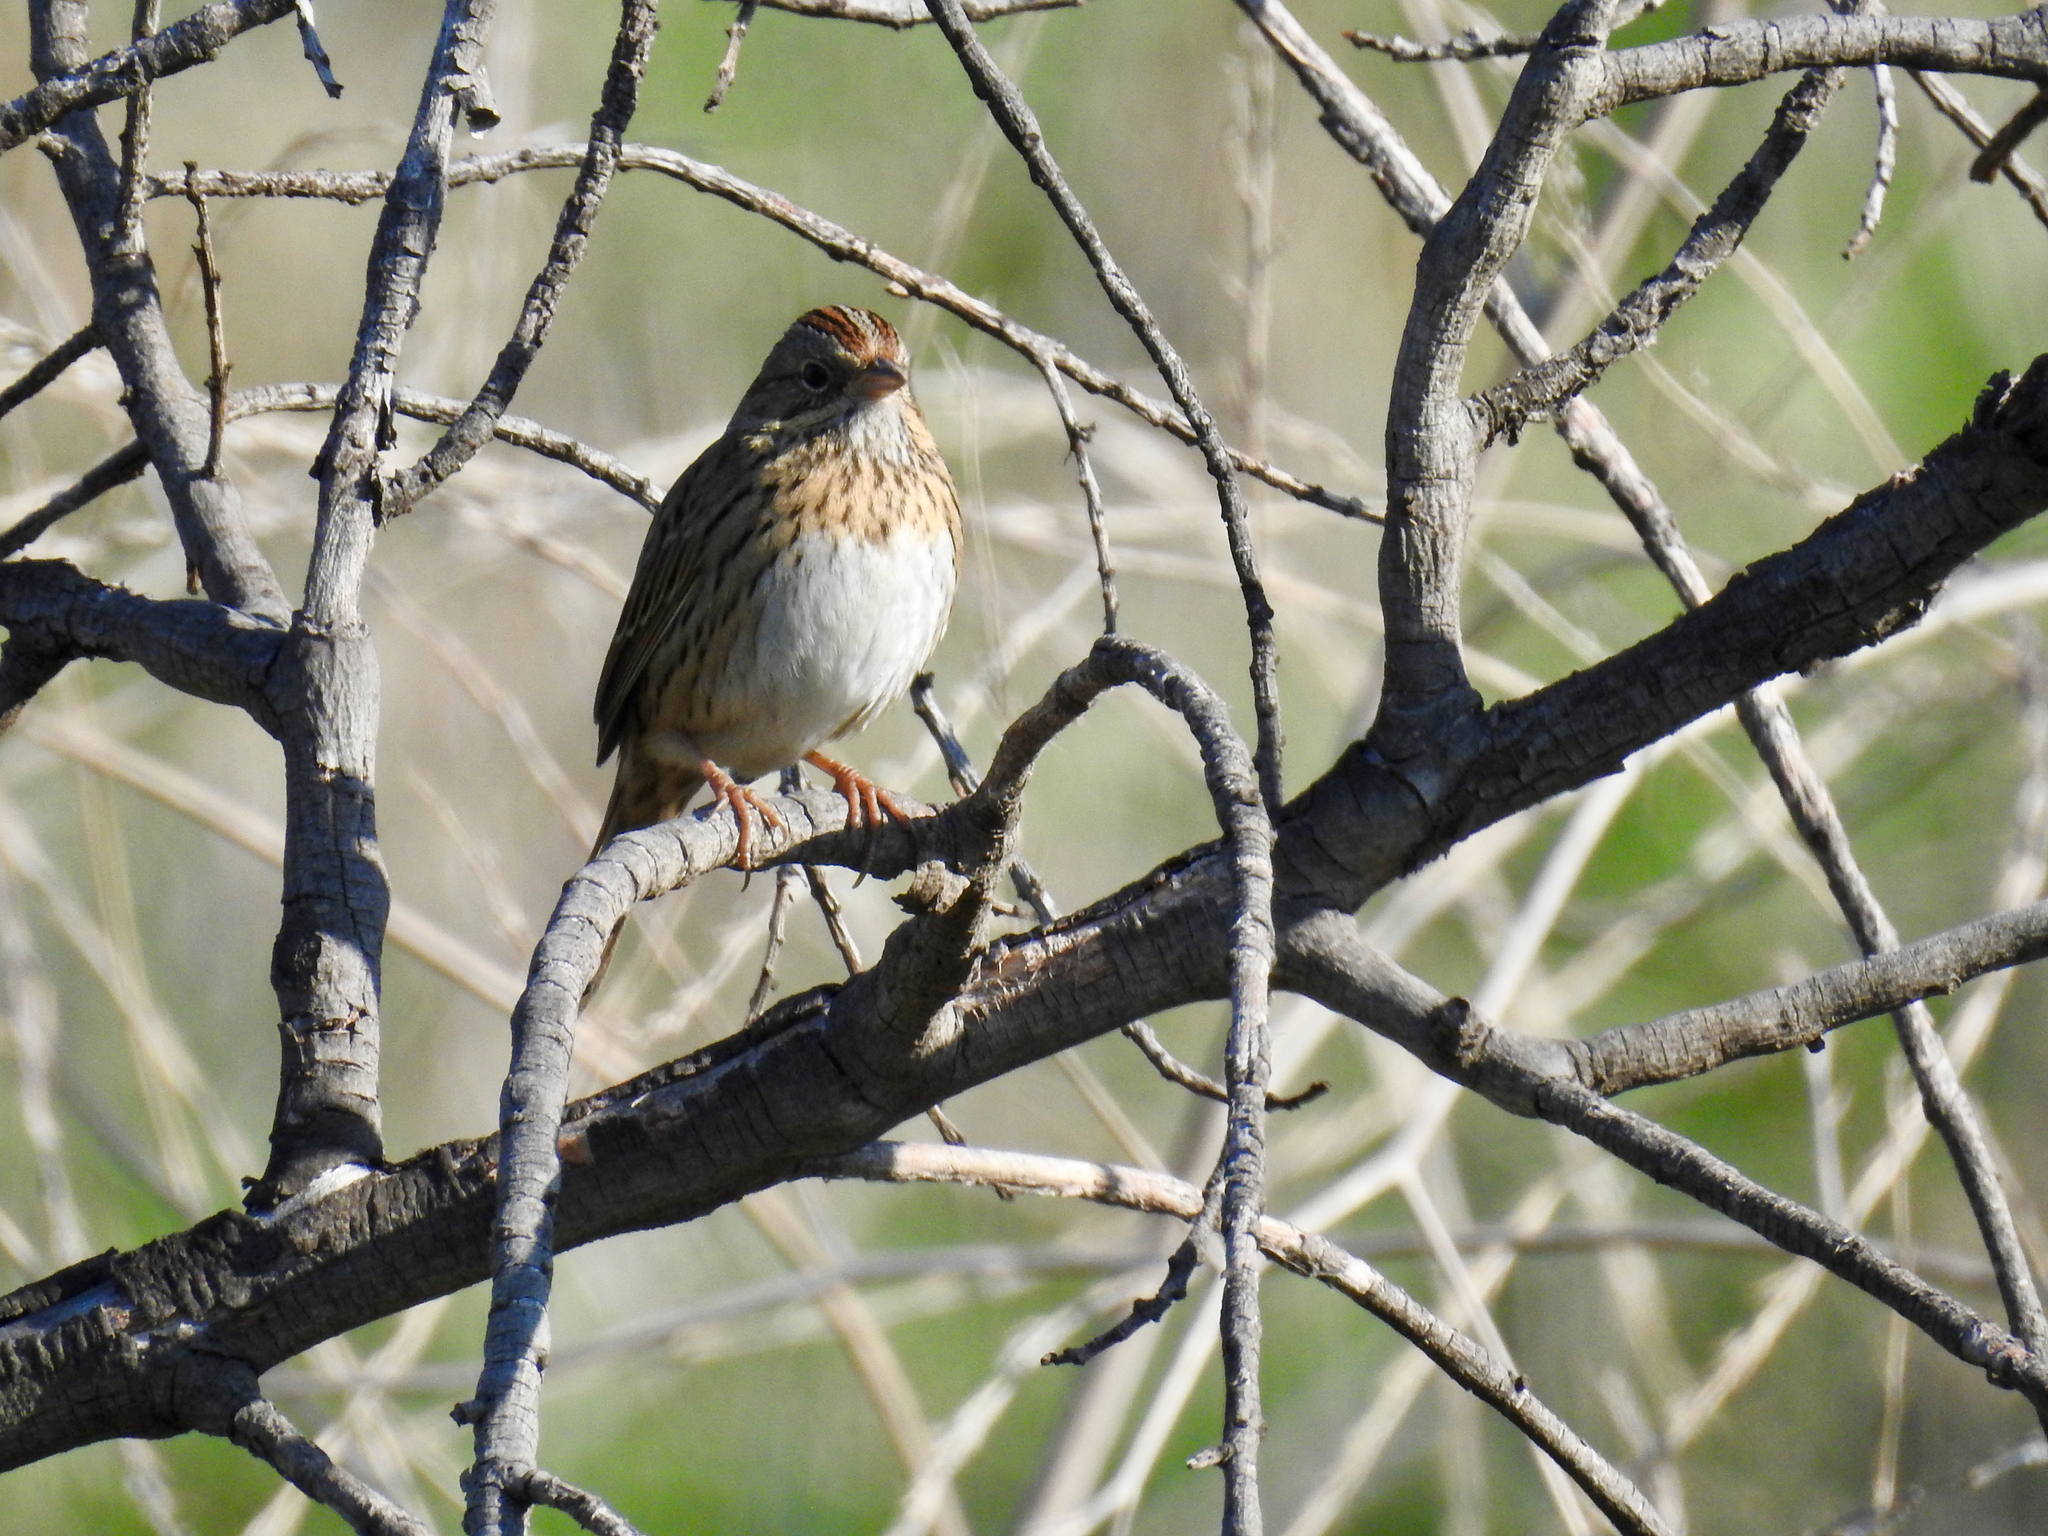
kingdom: Animalia
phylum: Chordata
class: Aves
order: Passeriformes
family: Passerellidae
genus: Melospiza
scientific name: Melospiza lincolnii
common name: Lincoln's sparrow
